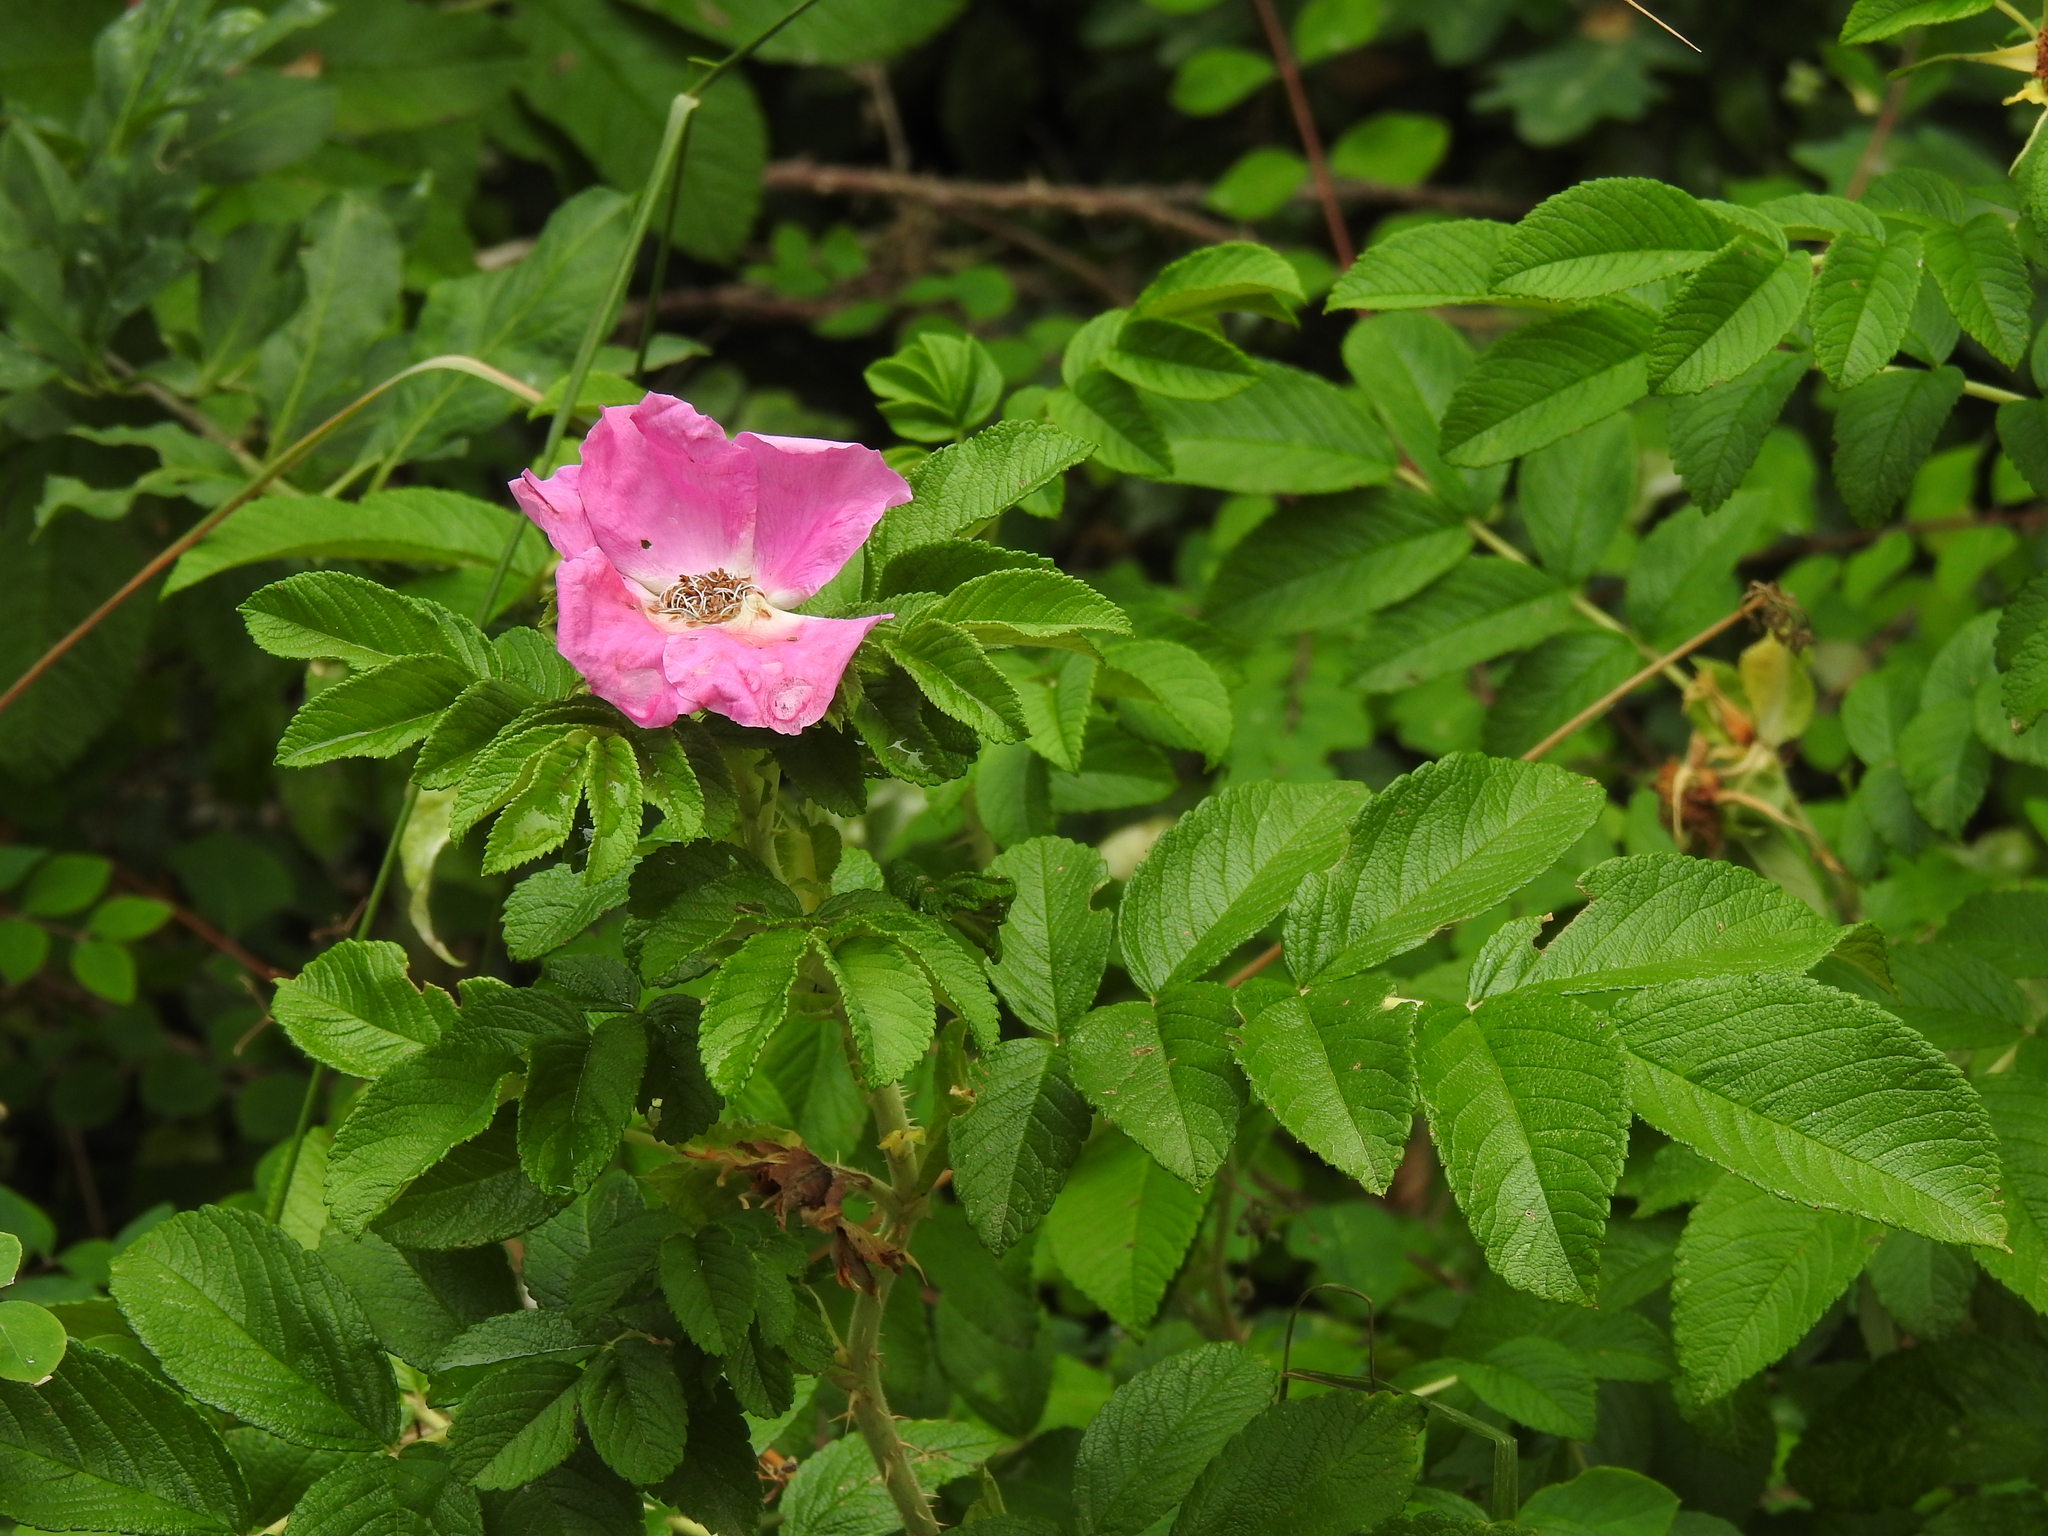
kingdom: Plantae
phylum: Tracheophyta
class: Magnoliopsida
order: Rosales
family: Rosaceae
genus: Rosa
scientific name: Rosa rugosa
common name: Japanese rose
